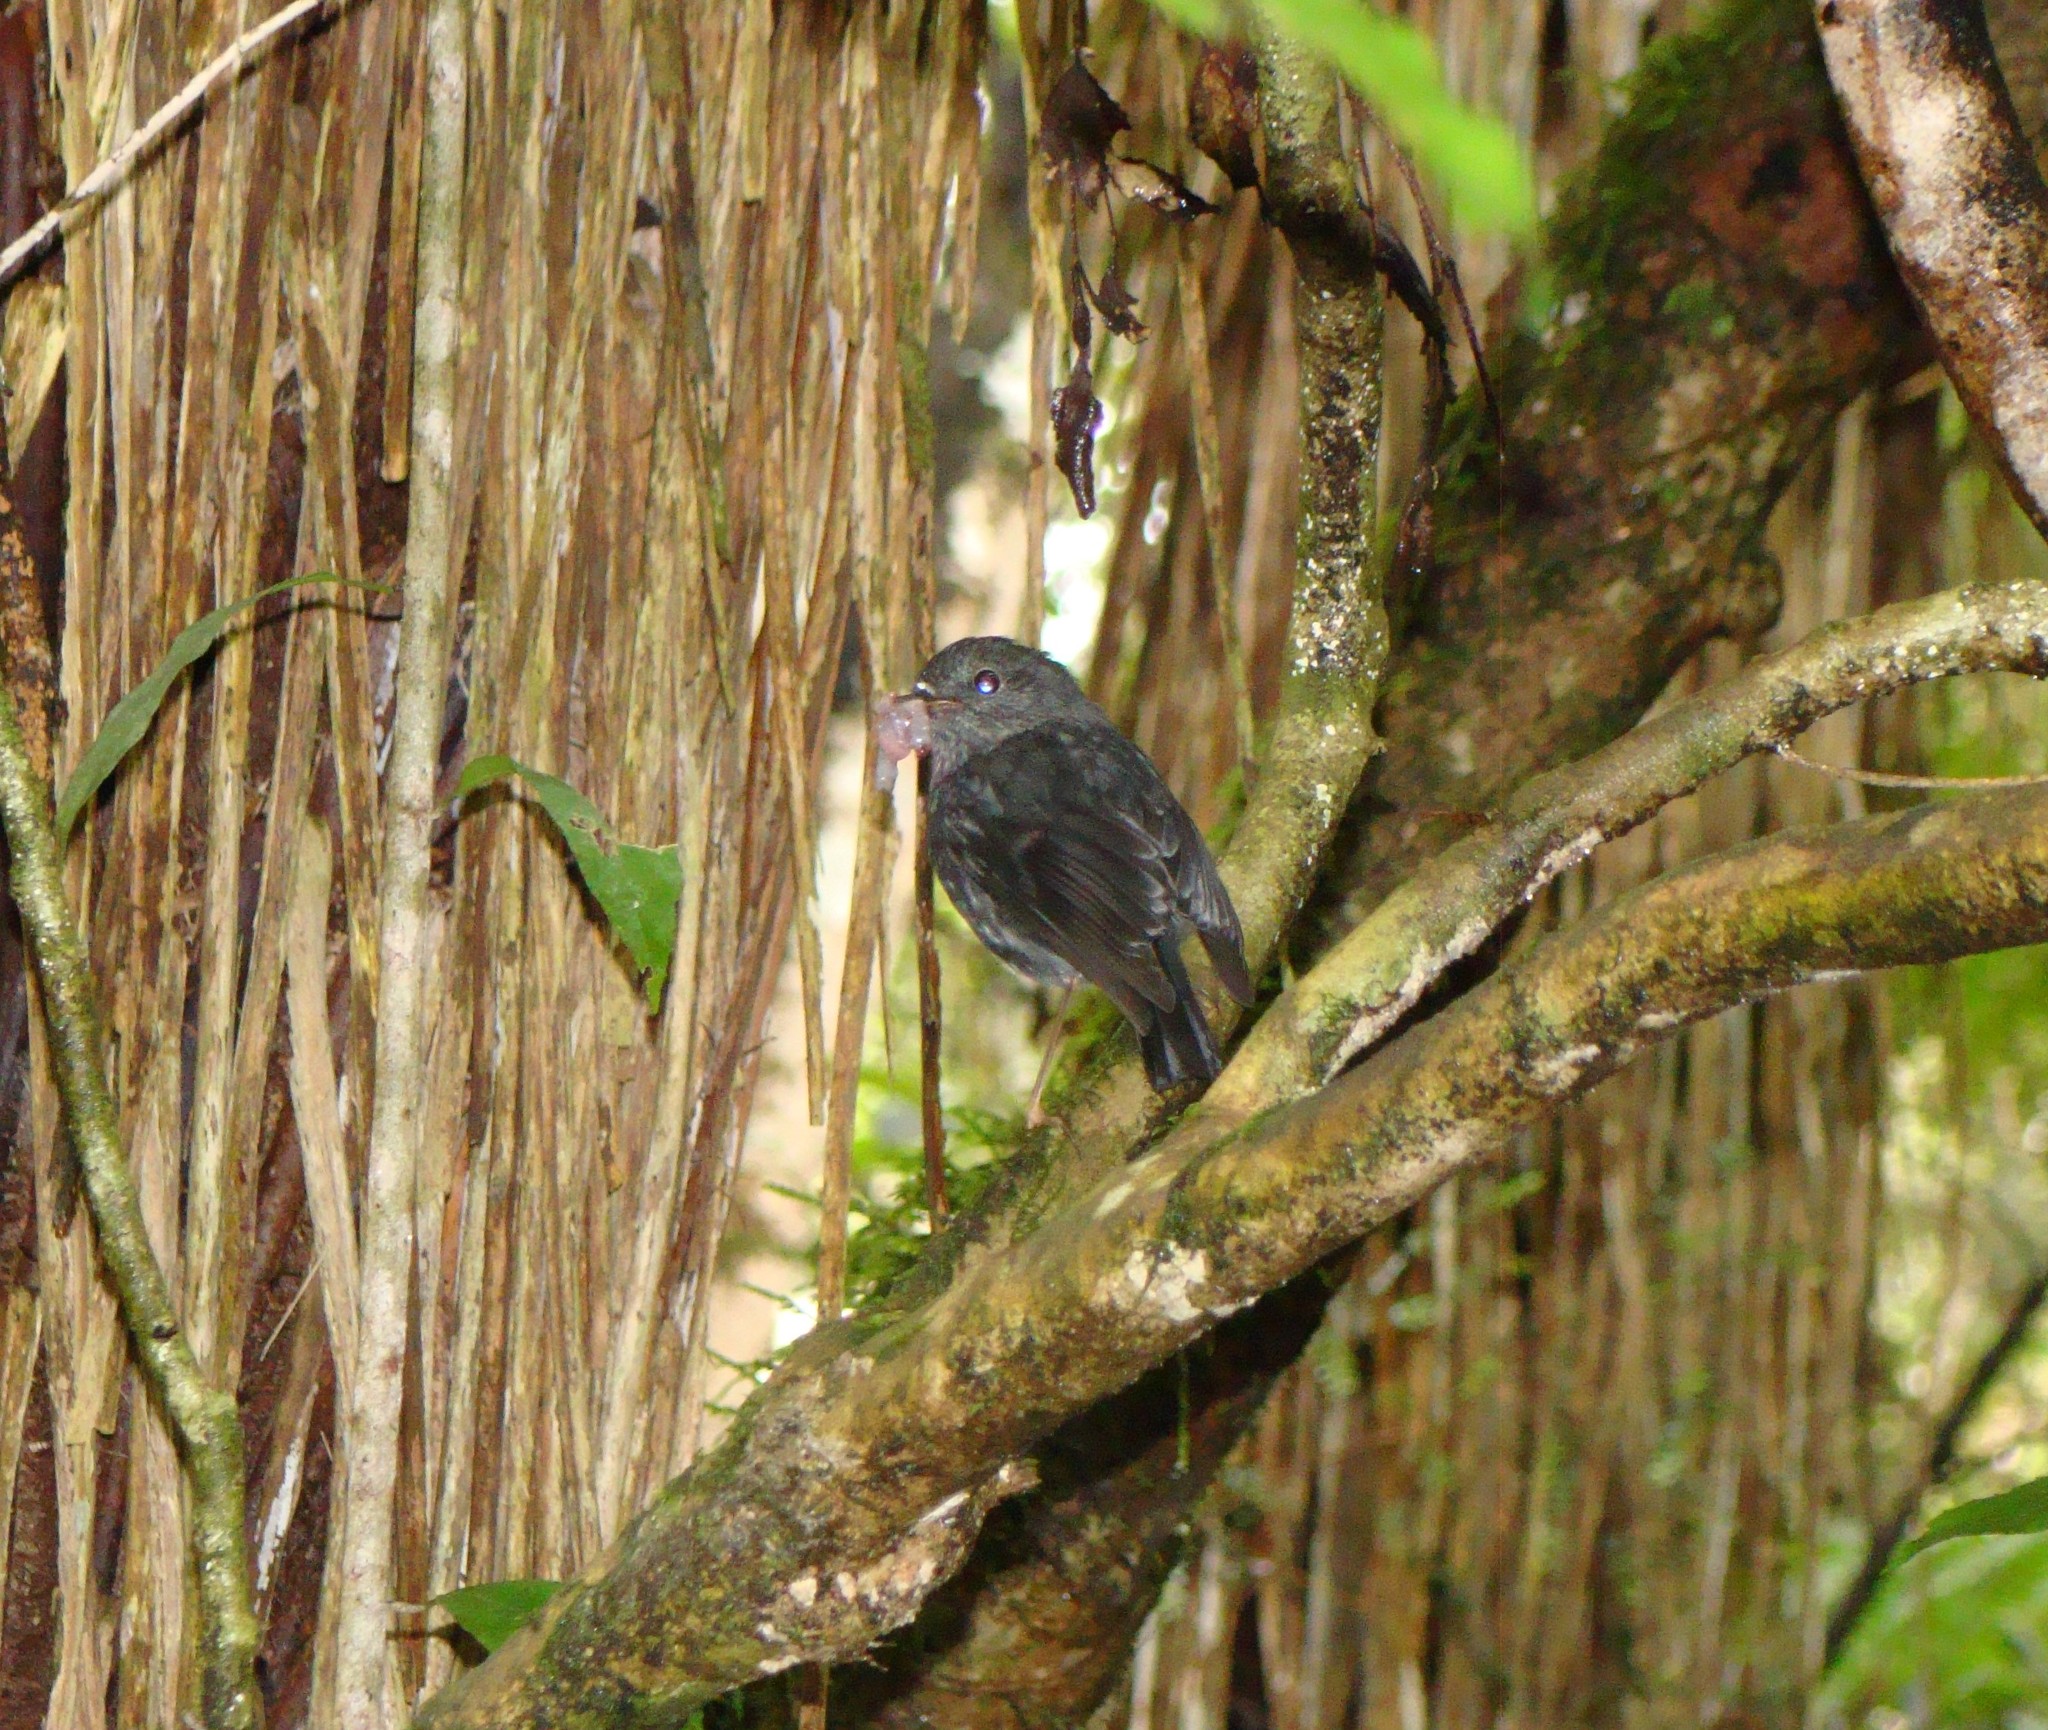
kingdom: Animalia
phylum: Chordata
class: Aves
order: Passeriformes
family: Petroicidae
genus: Petroica
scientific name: Petroica australis
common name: New zealand robin
